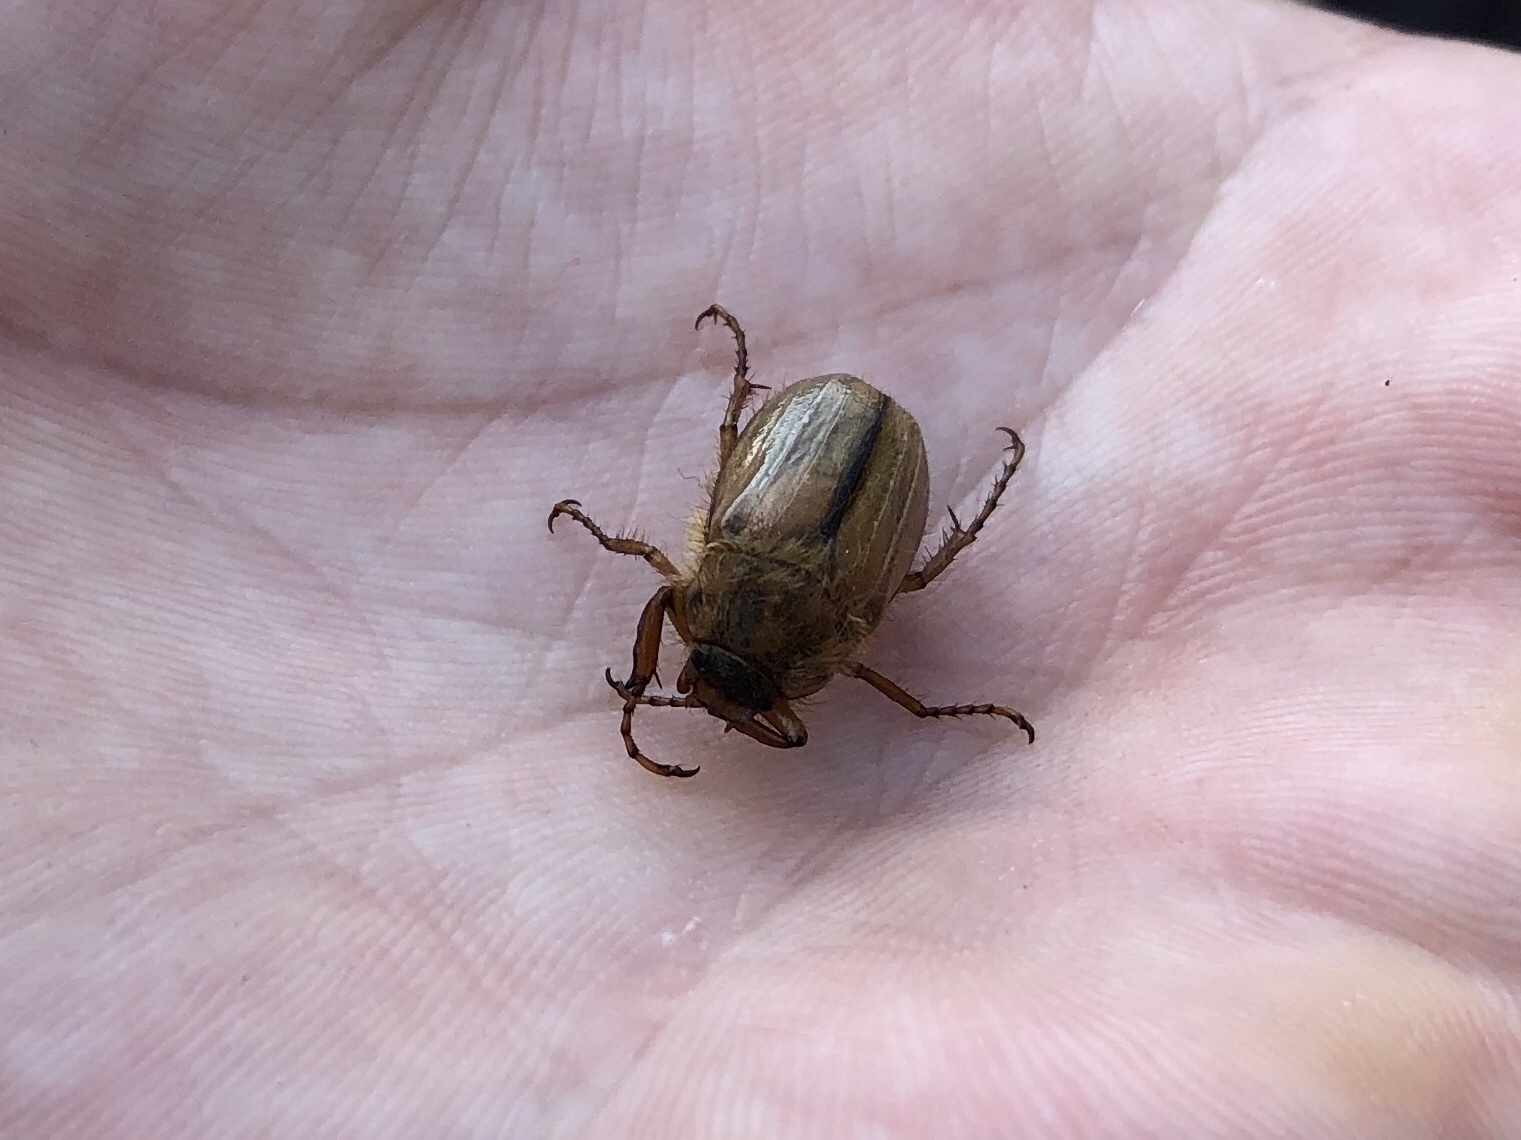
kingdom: Animalia
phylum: Arthropoda
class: Insecta
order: Coleoptera
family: Scarabaeidae
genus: Amphimallon
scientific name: Amphimallon solstitiale
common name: Summer chafer
